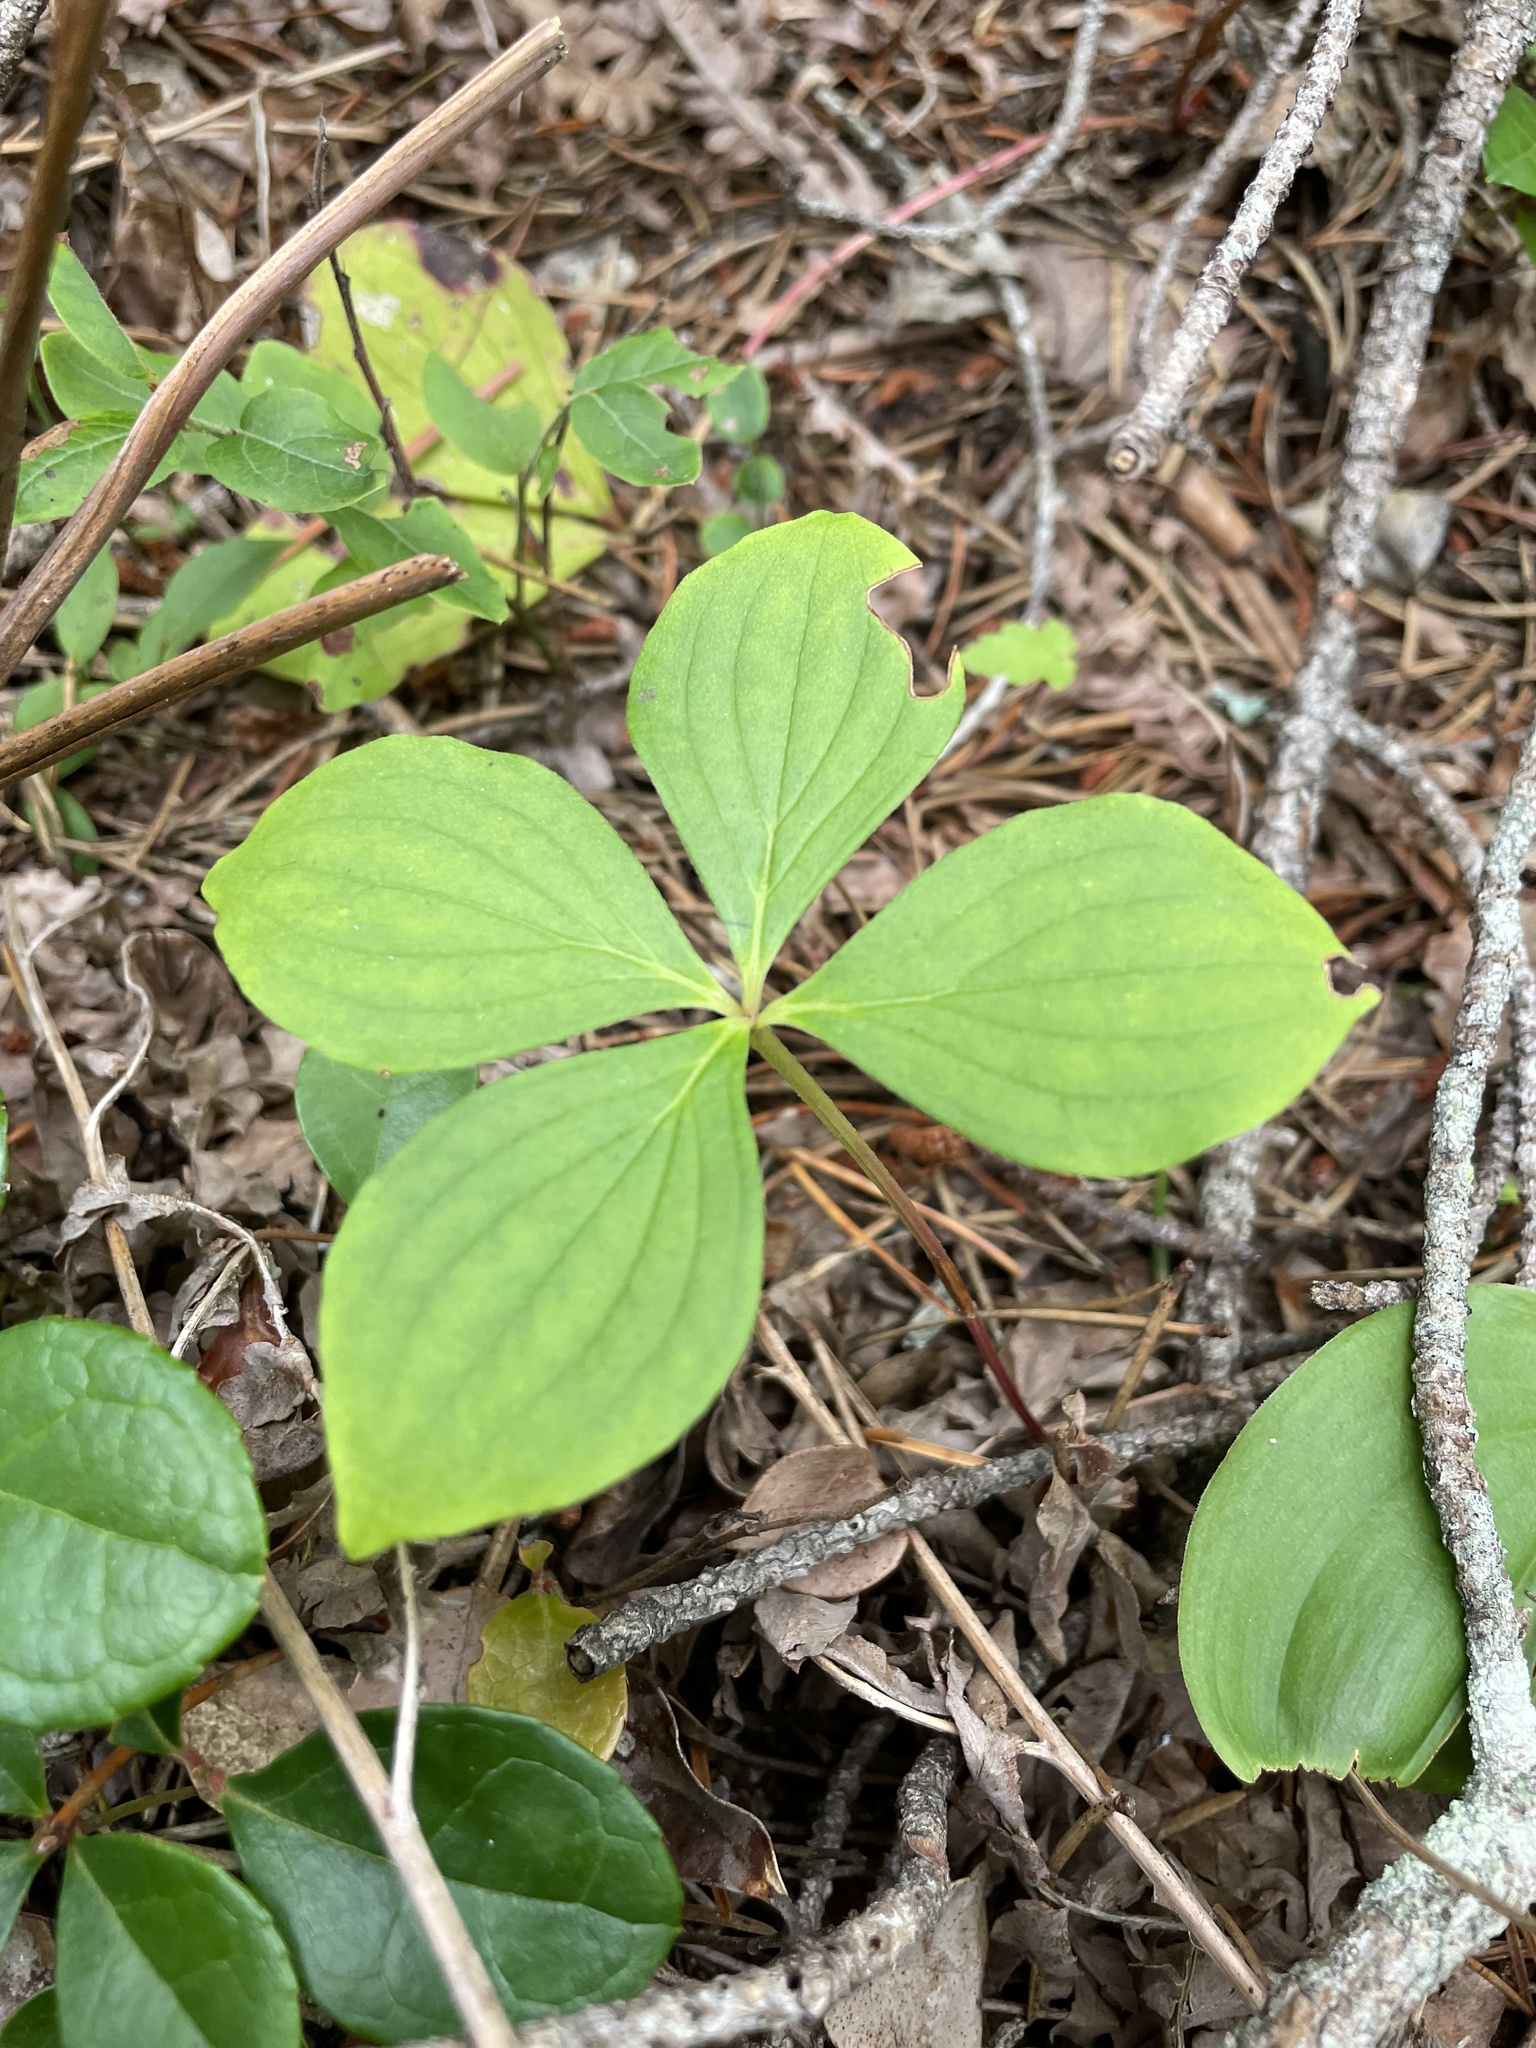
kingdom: Plantae
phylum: Tracheophyta
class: Magnoliopsida
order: Cornales
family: Cornaceae
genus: Cornus
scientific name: Cornus canadensis
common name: Creeping dogwood
